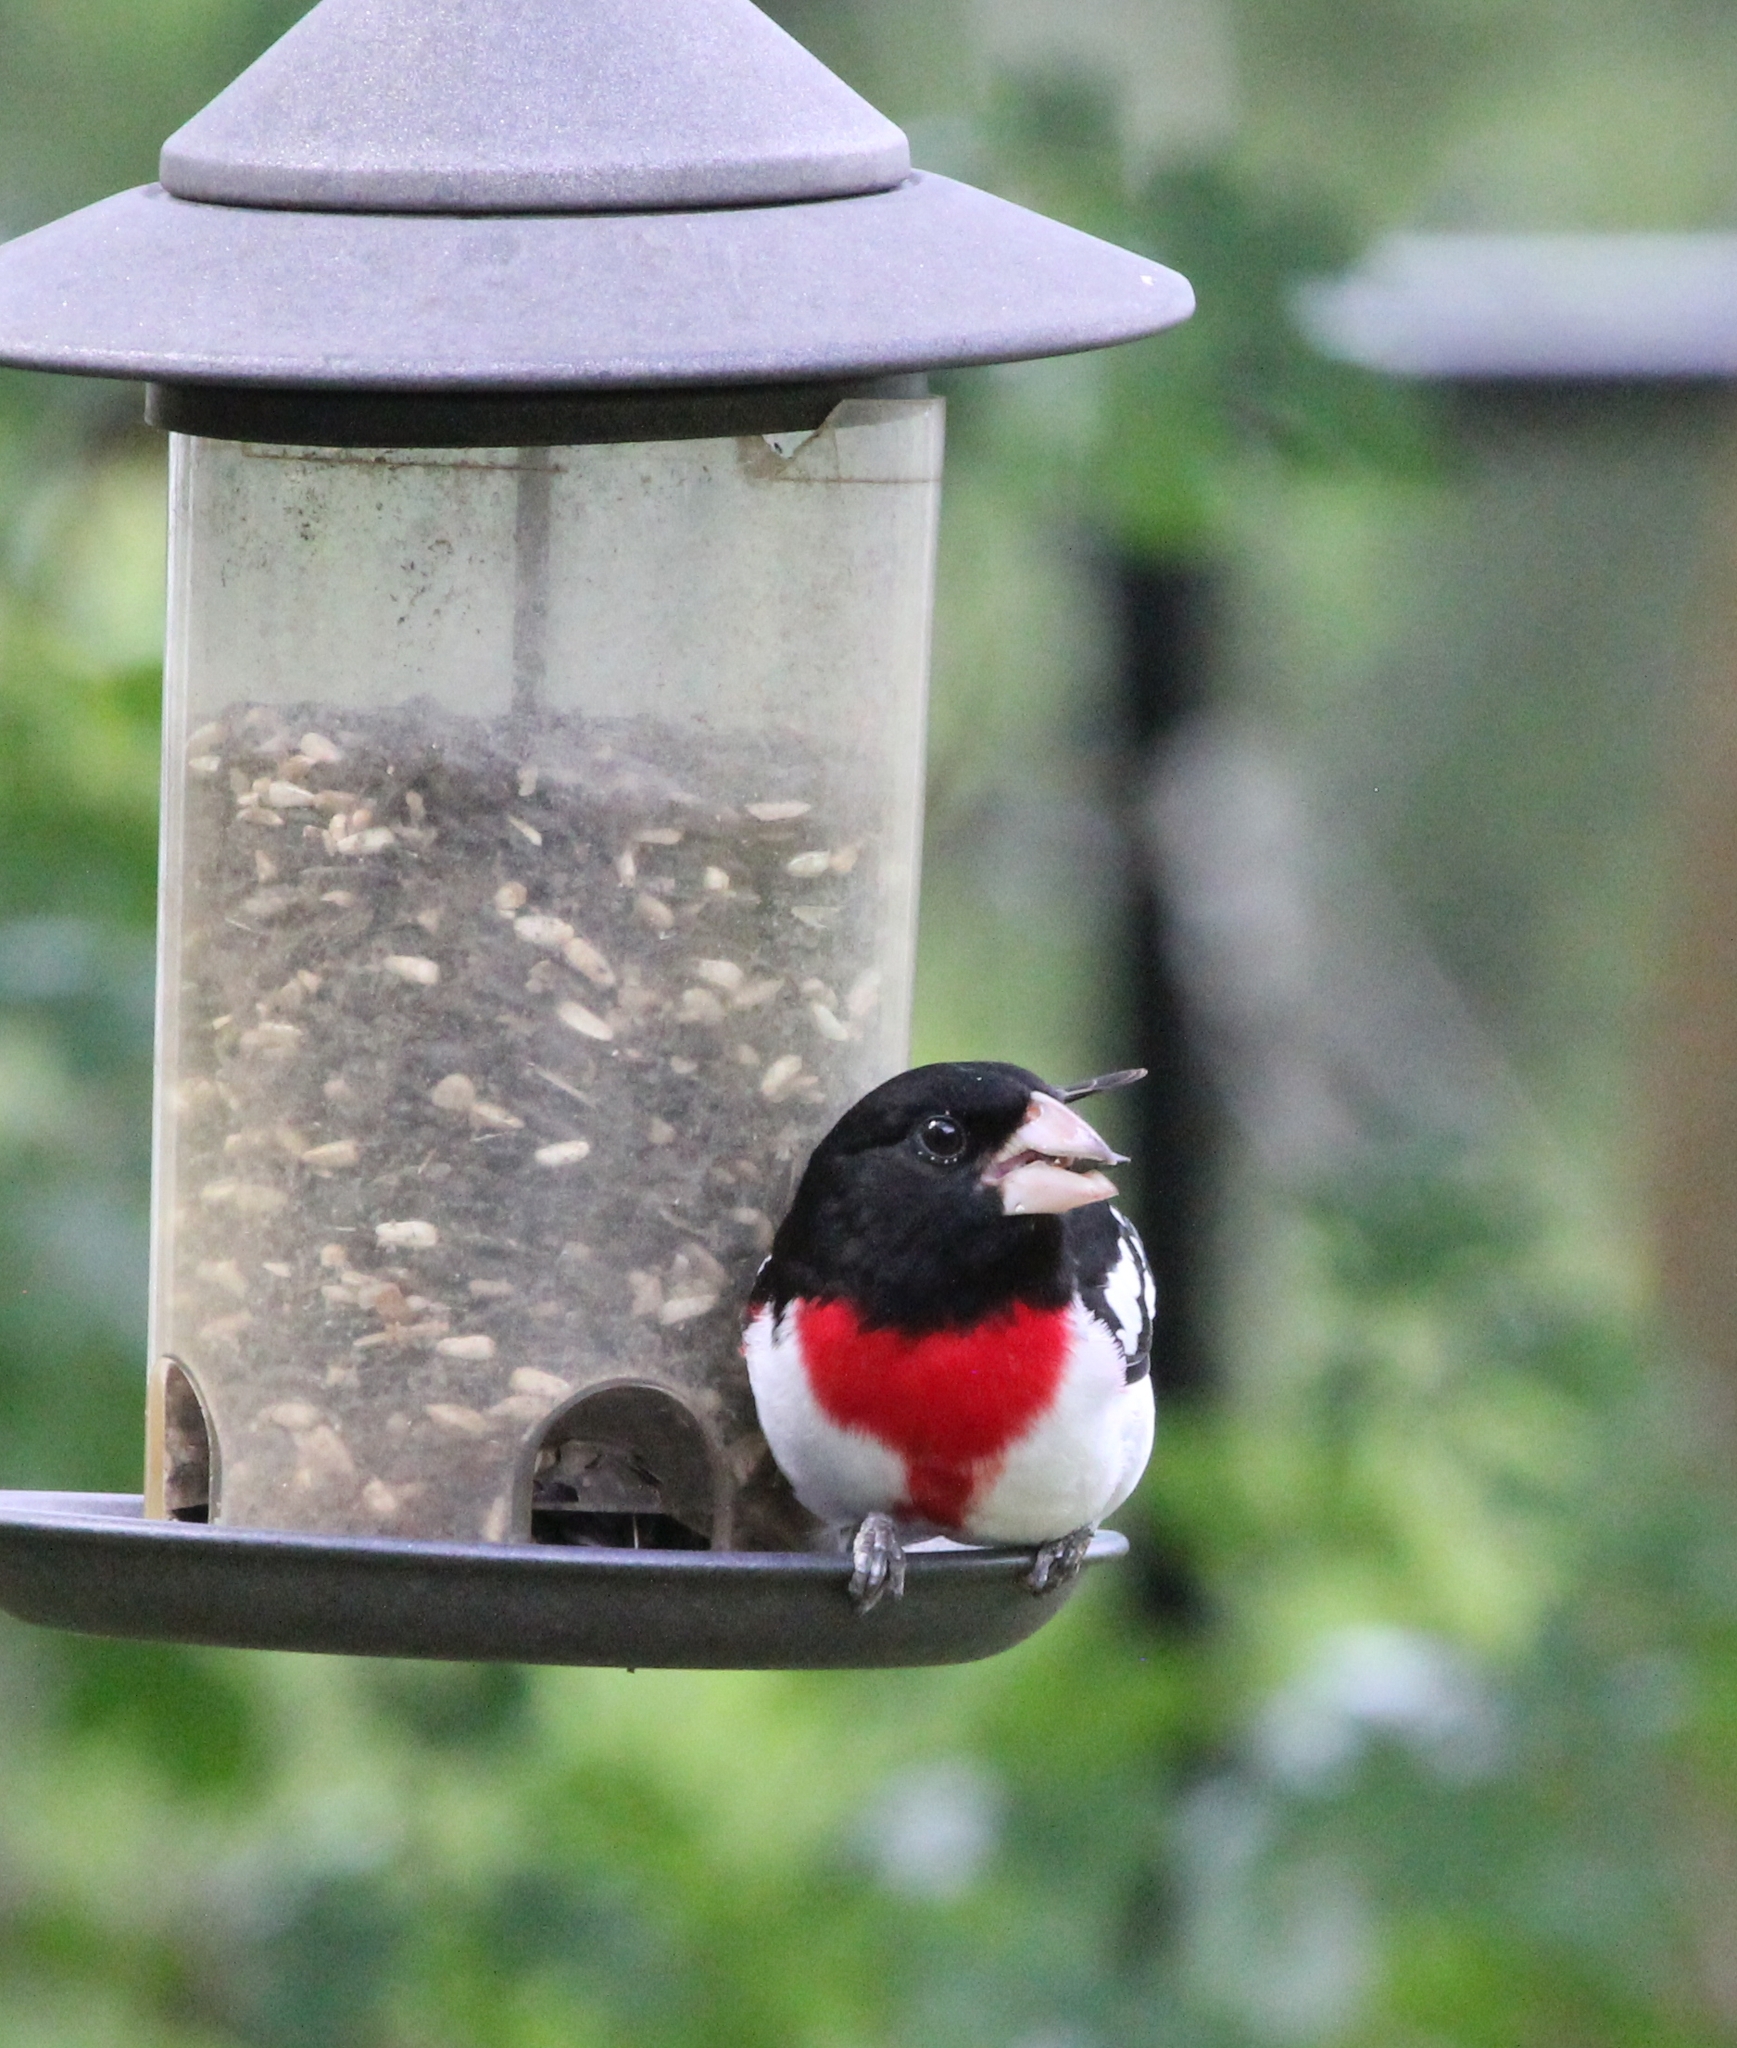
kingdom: Animalia
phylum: Chordata
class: Aves
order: Passeriformes
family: Cardinalidae
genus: Pheucticus
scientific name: Pheucticus ludovicianus
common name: Rose-breasted grosbeak
